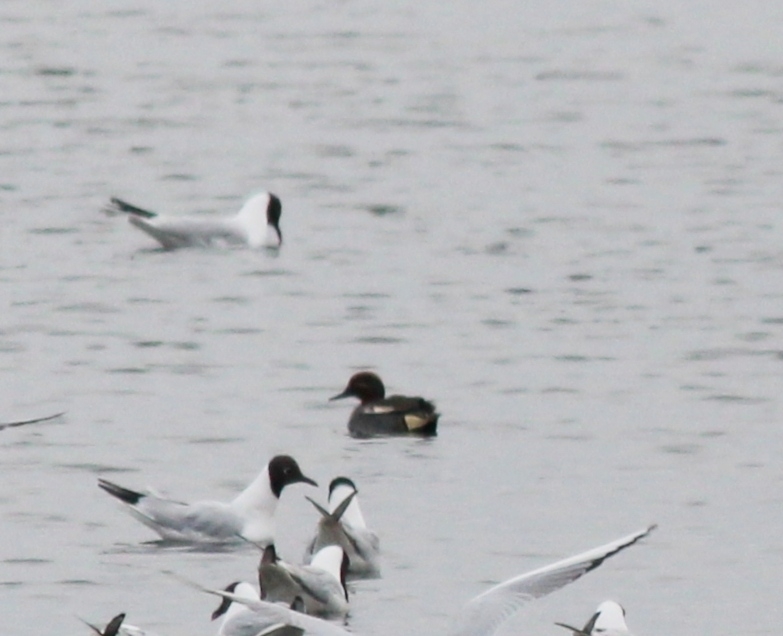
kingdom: Animalia
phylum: Chordata
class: Aves
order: Anseriformes
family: Anatidae
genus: Anas
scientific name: Anas crecca
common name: Eurasian teal
